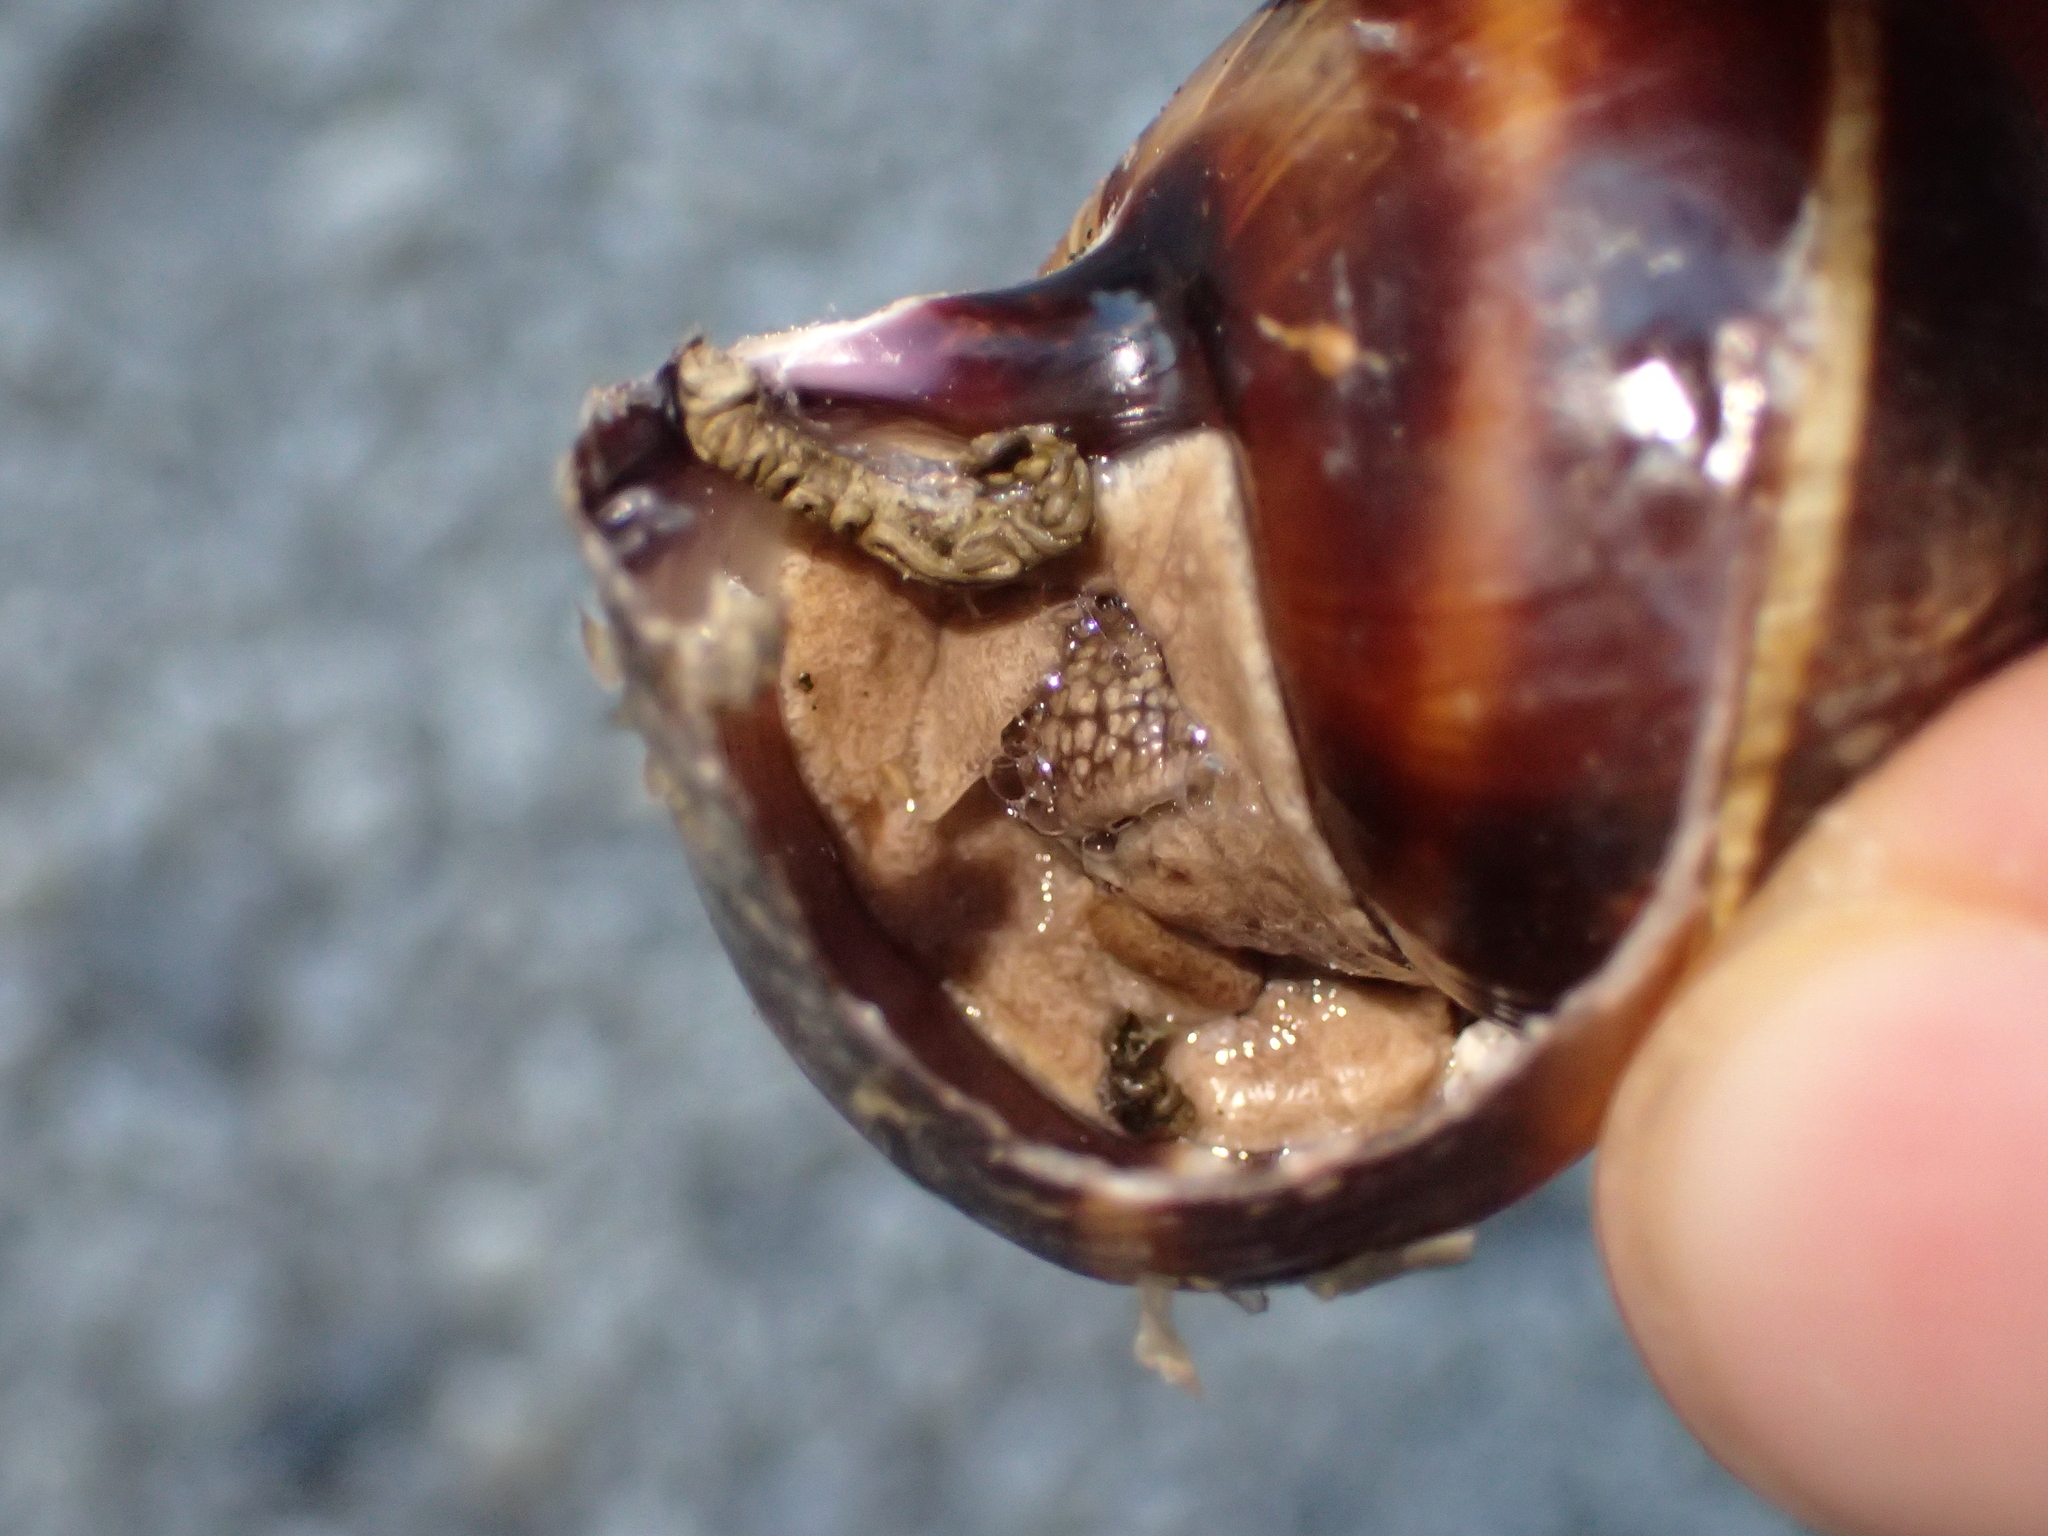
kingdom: Animalia
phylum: Mollusca
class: Gastropoda
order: Stylommatophora
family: Helicidae
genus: Helix
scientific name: Helix lucorum
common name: Turkish snail
